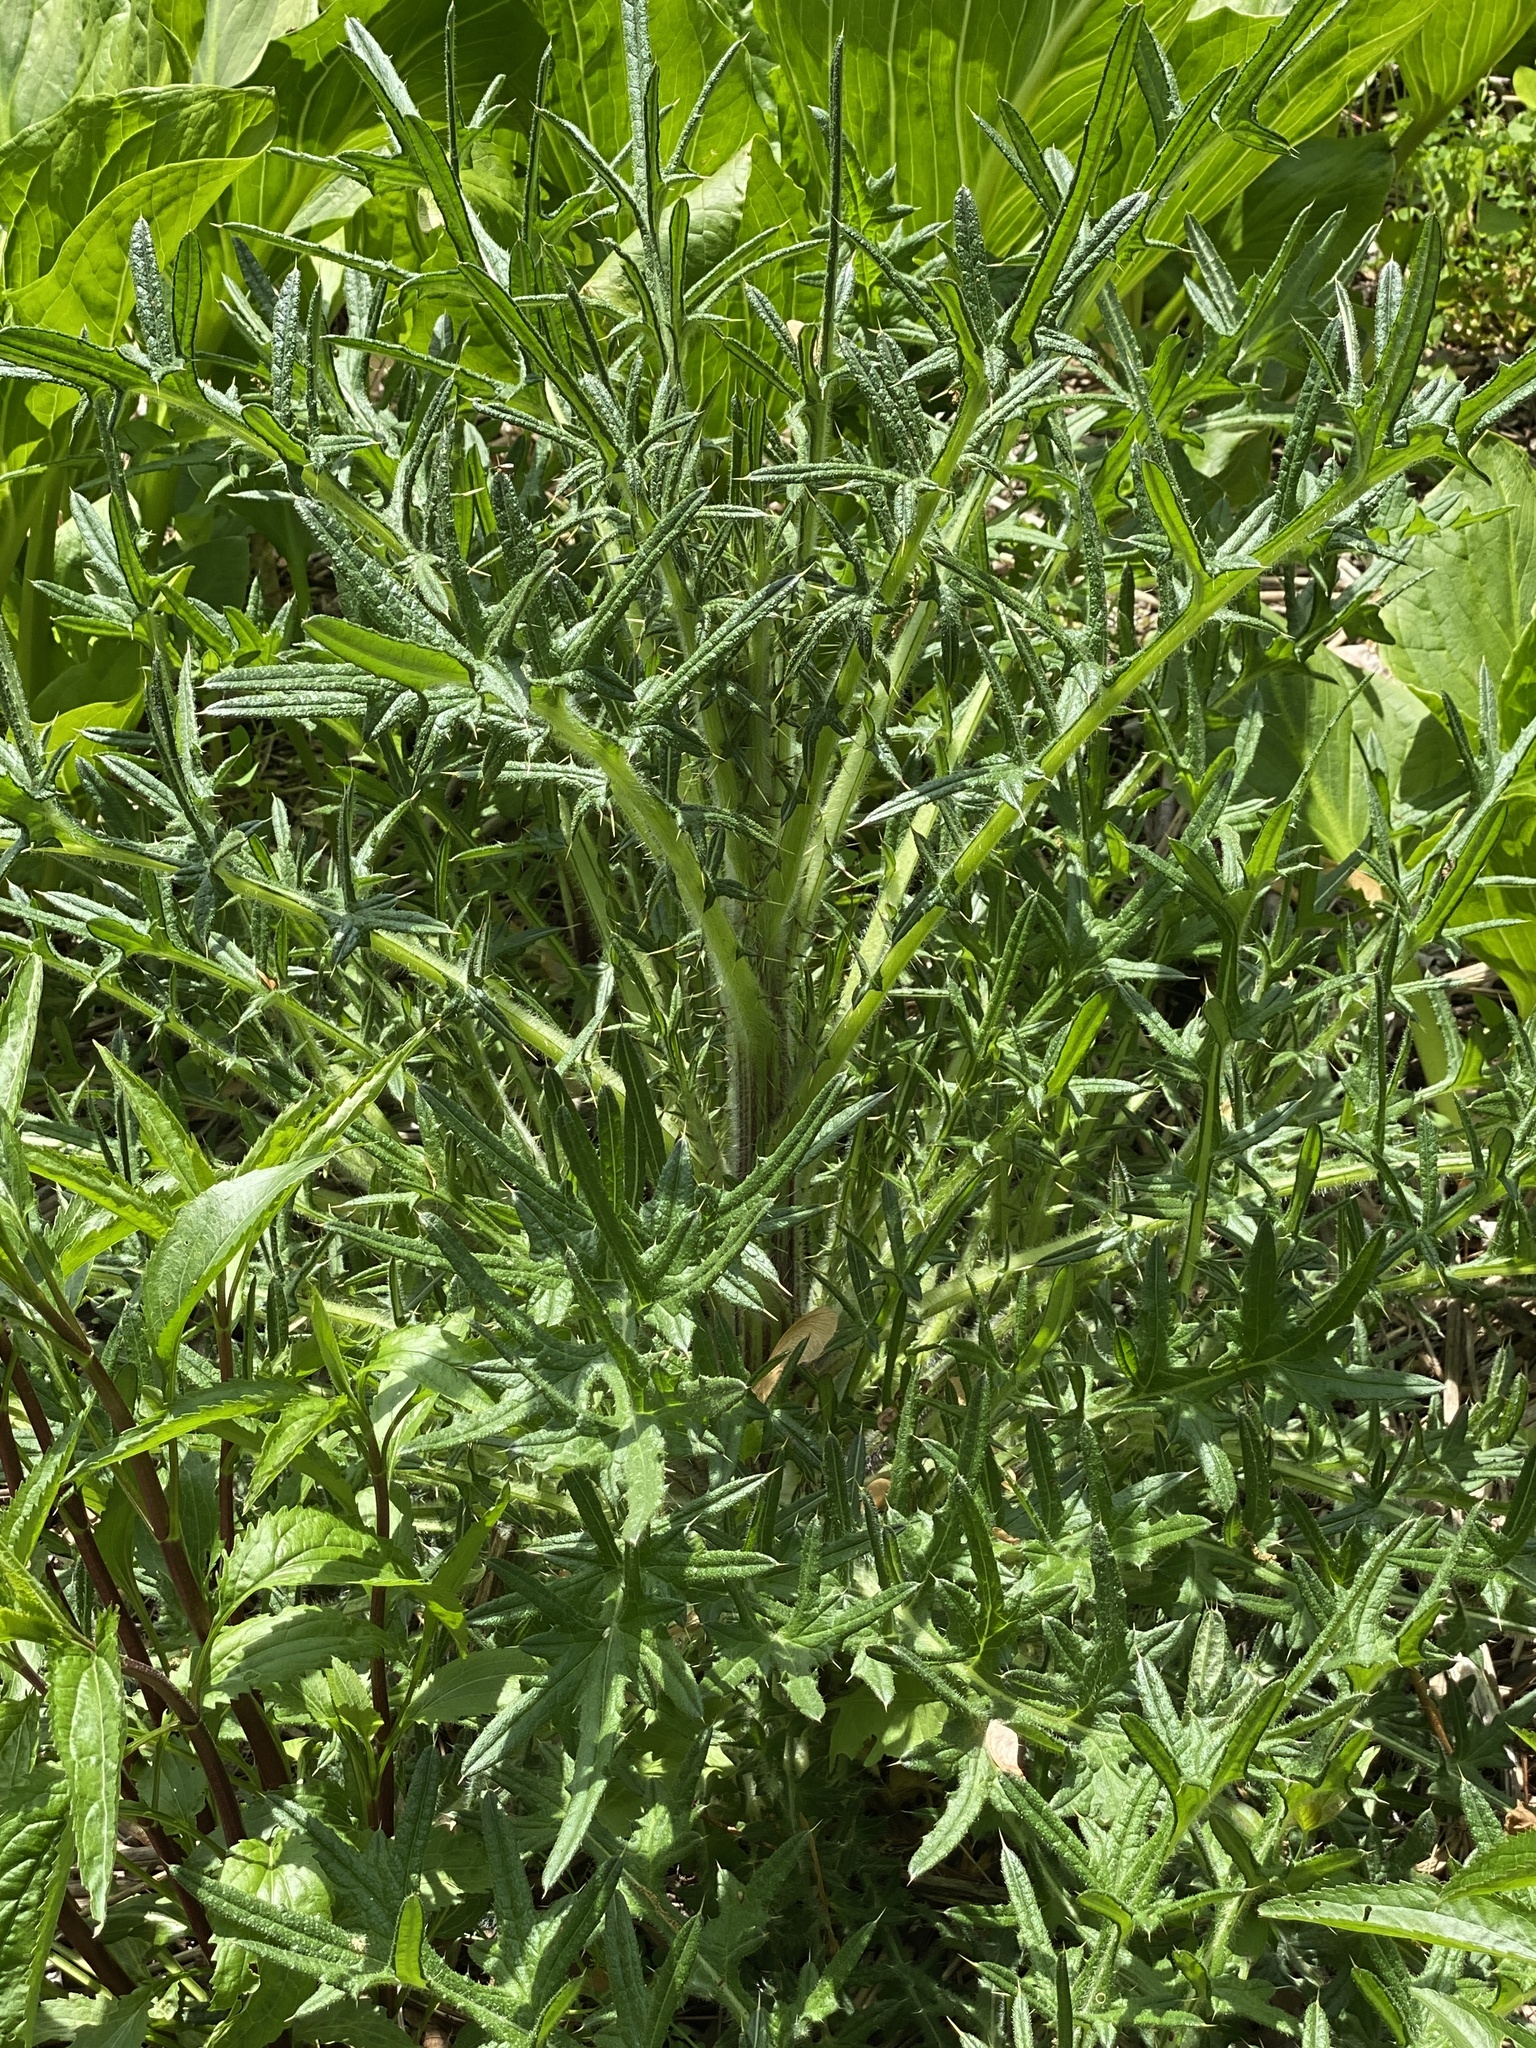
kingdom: Plantae
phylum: Tracheophyta
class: Magnoliopsida
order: Asterales
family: Asteraceae
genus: Cirsium
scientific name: Cirsium vulgare
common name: Bull thistle
